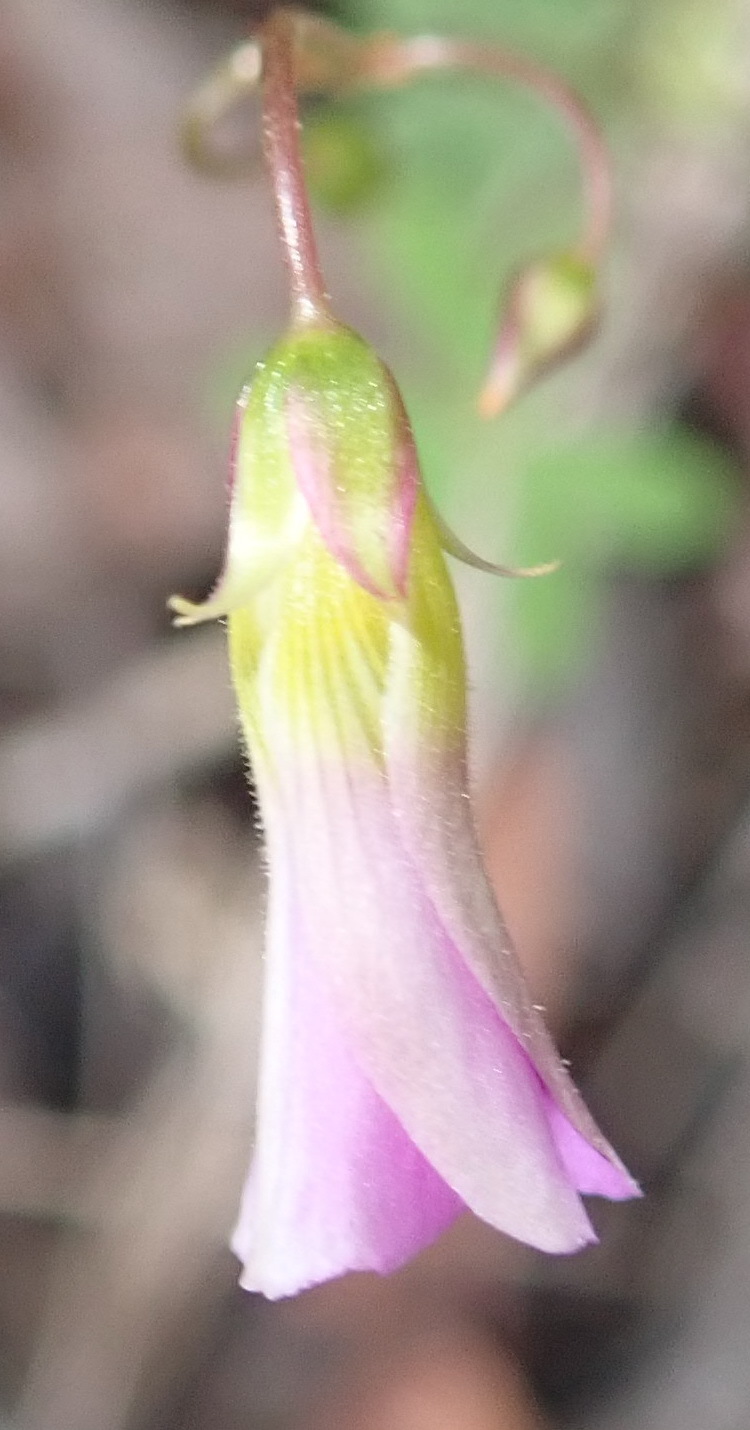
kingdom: Plantae
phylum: Tracheophyta
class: Magnoliopsida
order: Oxalidales
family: Oxalidaceae
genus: Oxalis
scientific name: Oxalis stellata
